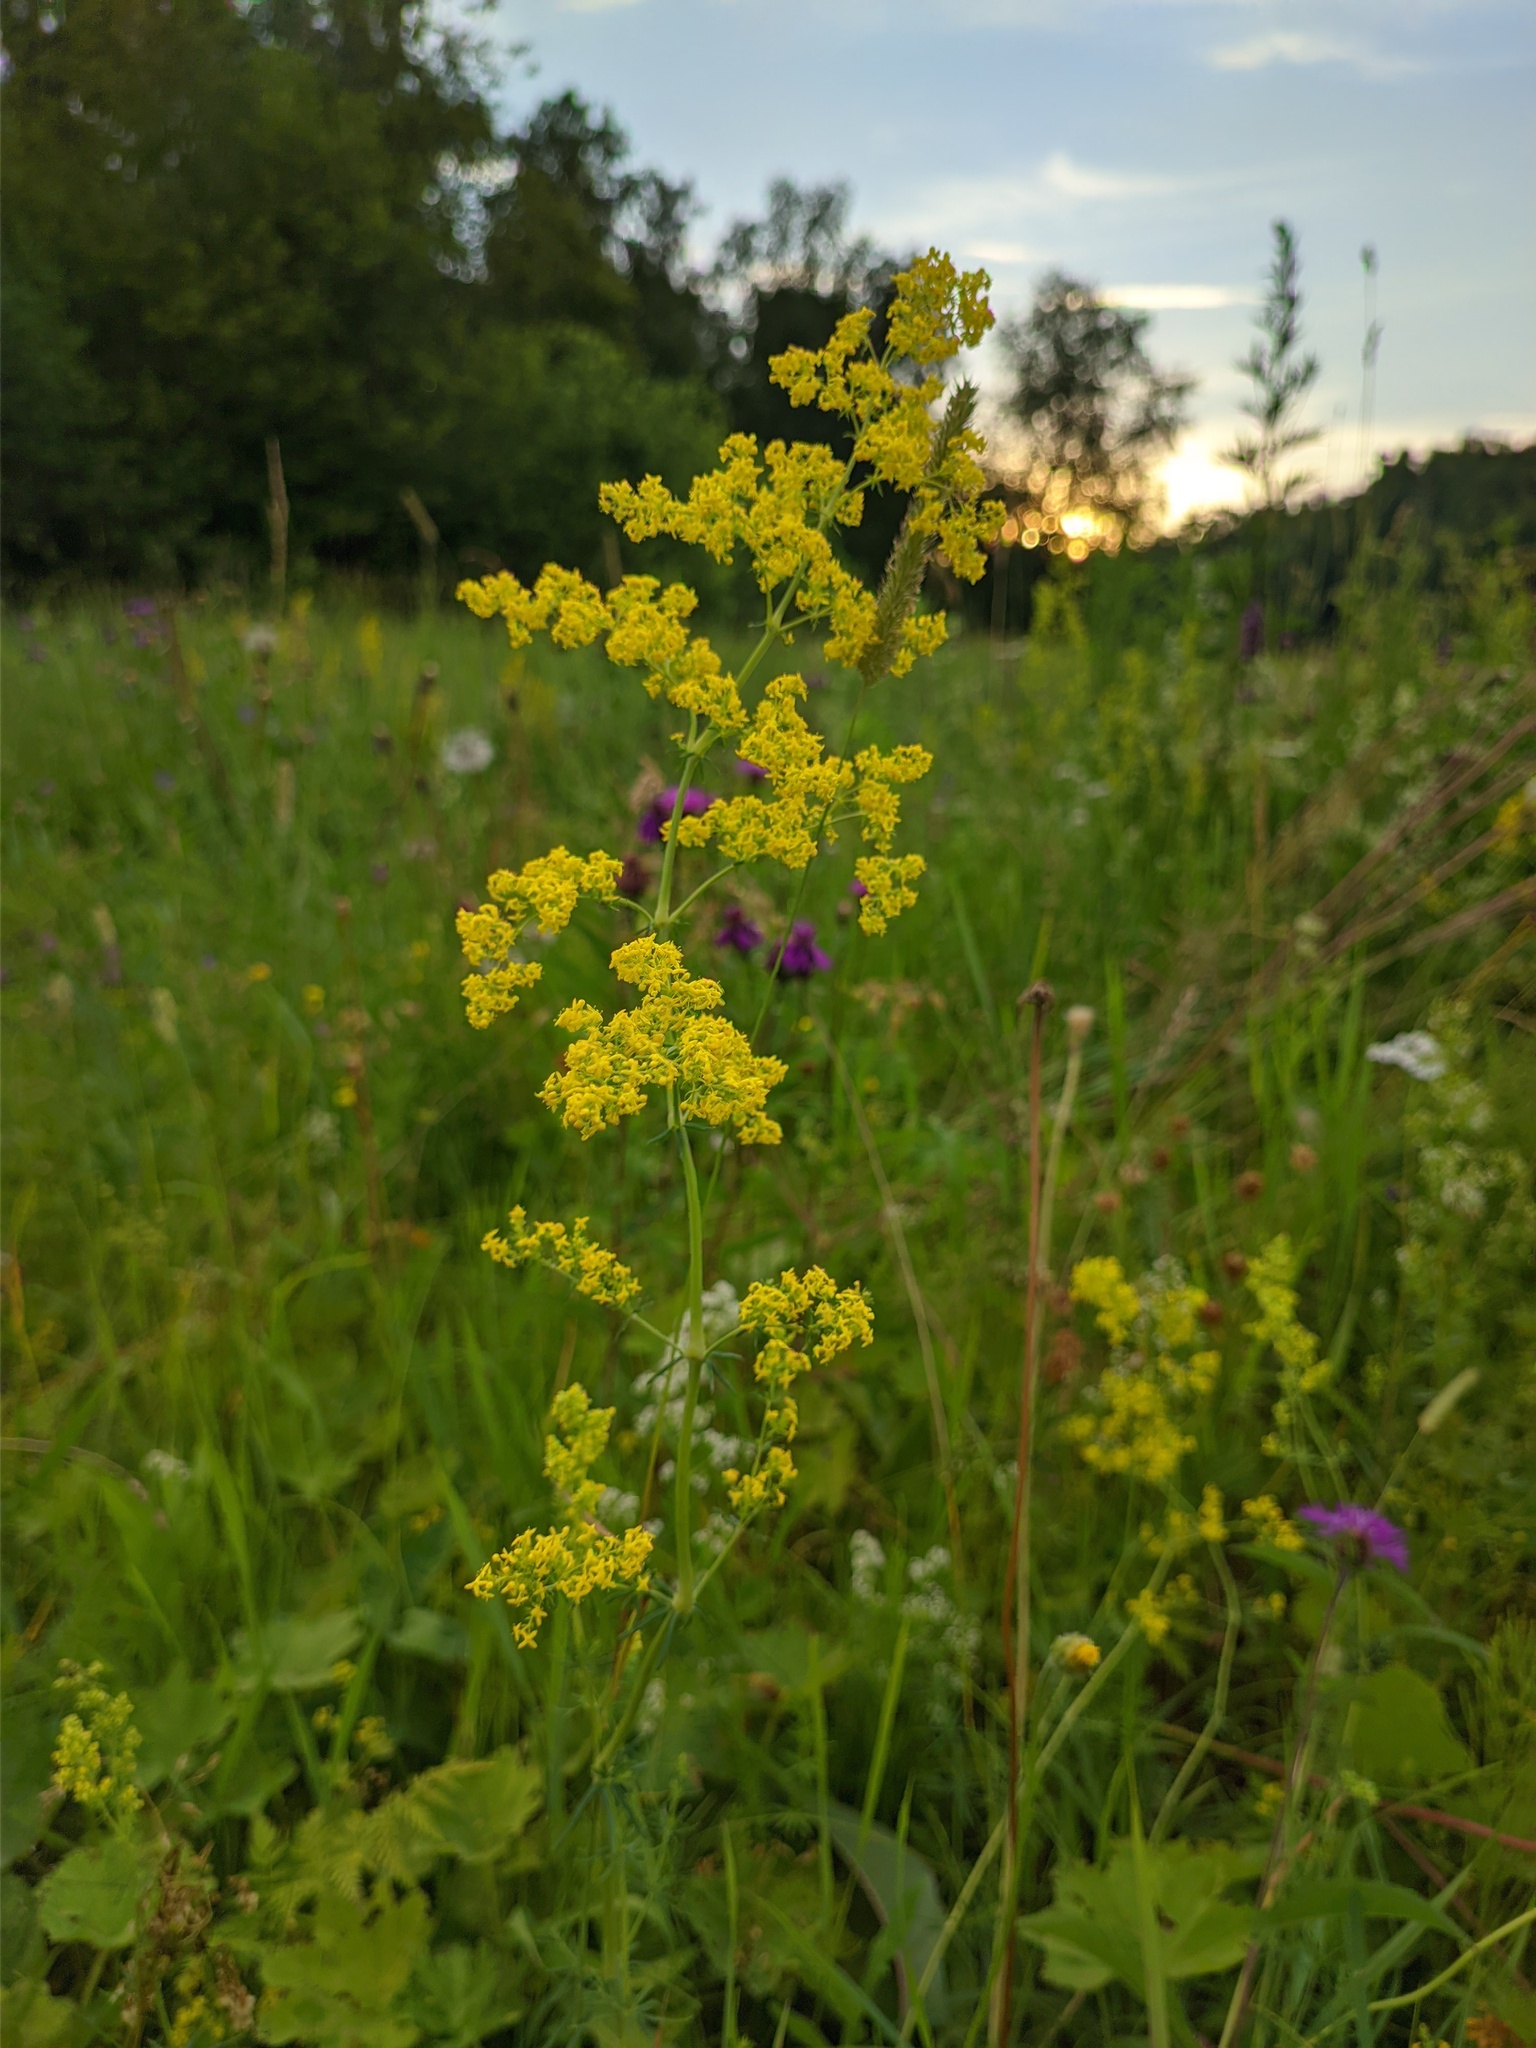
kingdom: Plantae
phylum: Tracheophyta
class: Magnoliopsida
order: Gentianales
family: Rubiaceae
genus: Galium
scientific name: Galium verum
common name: Lady's bedstraw
